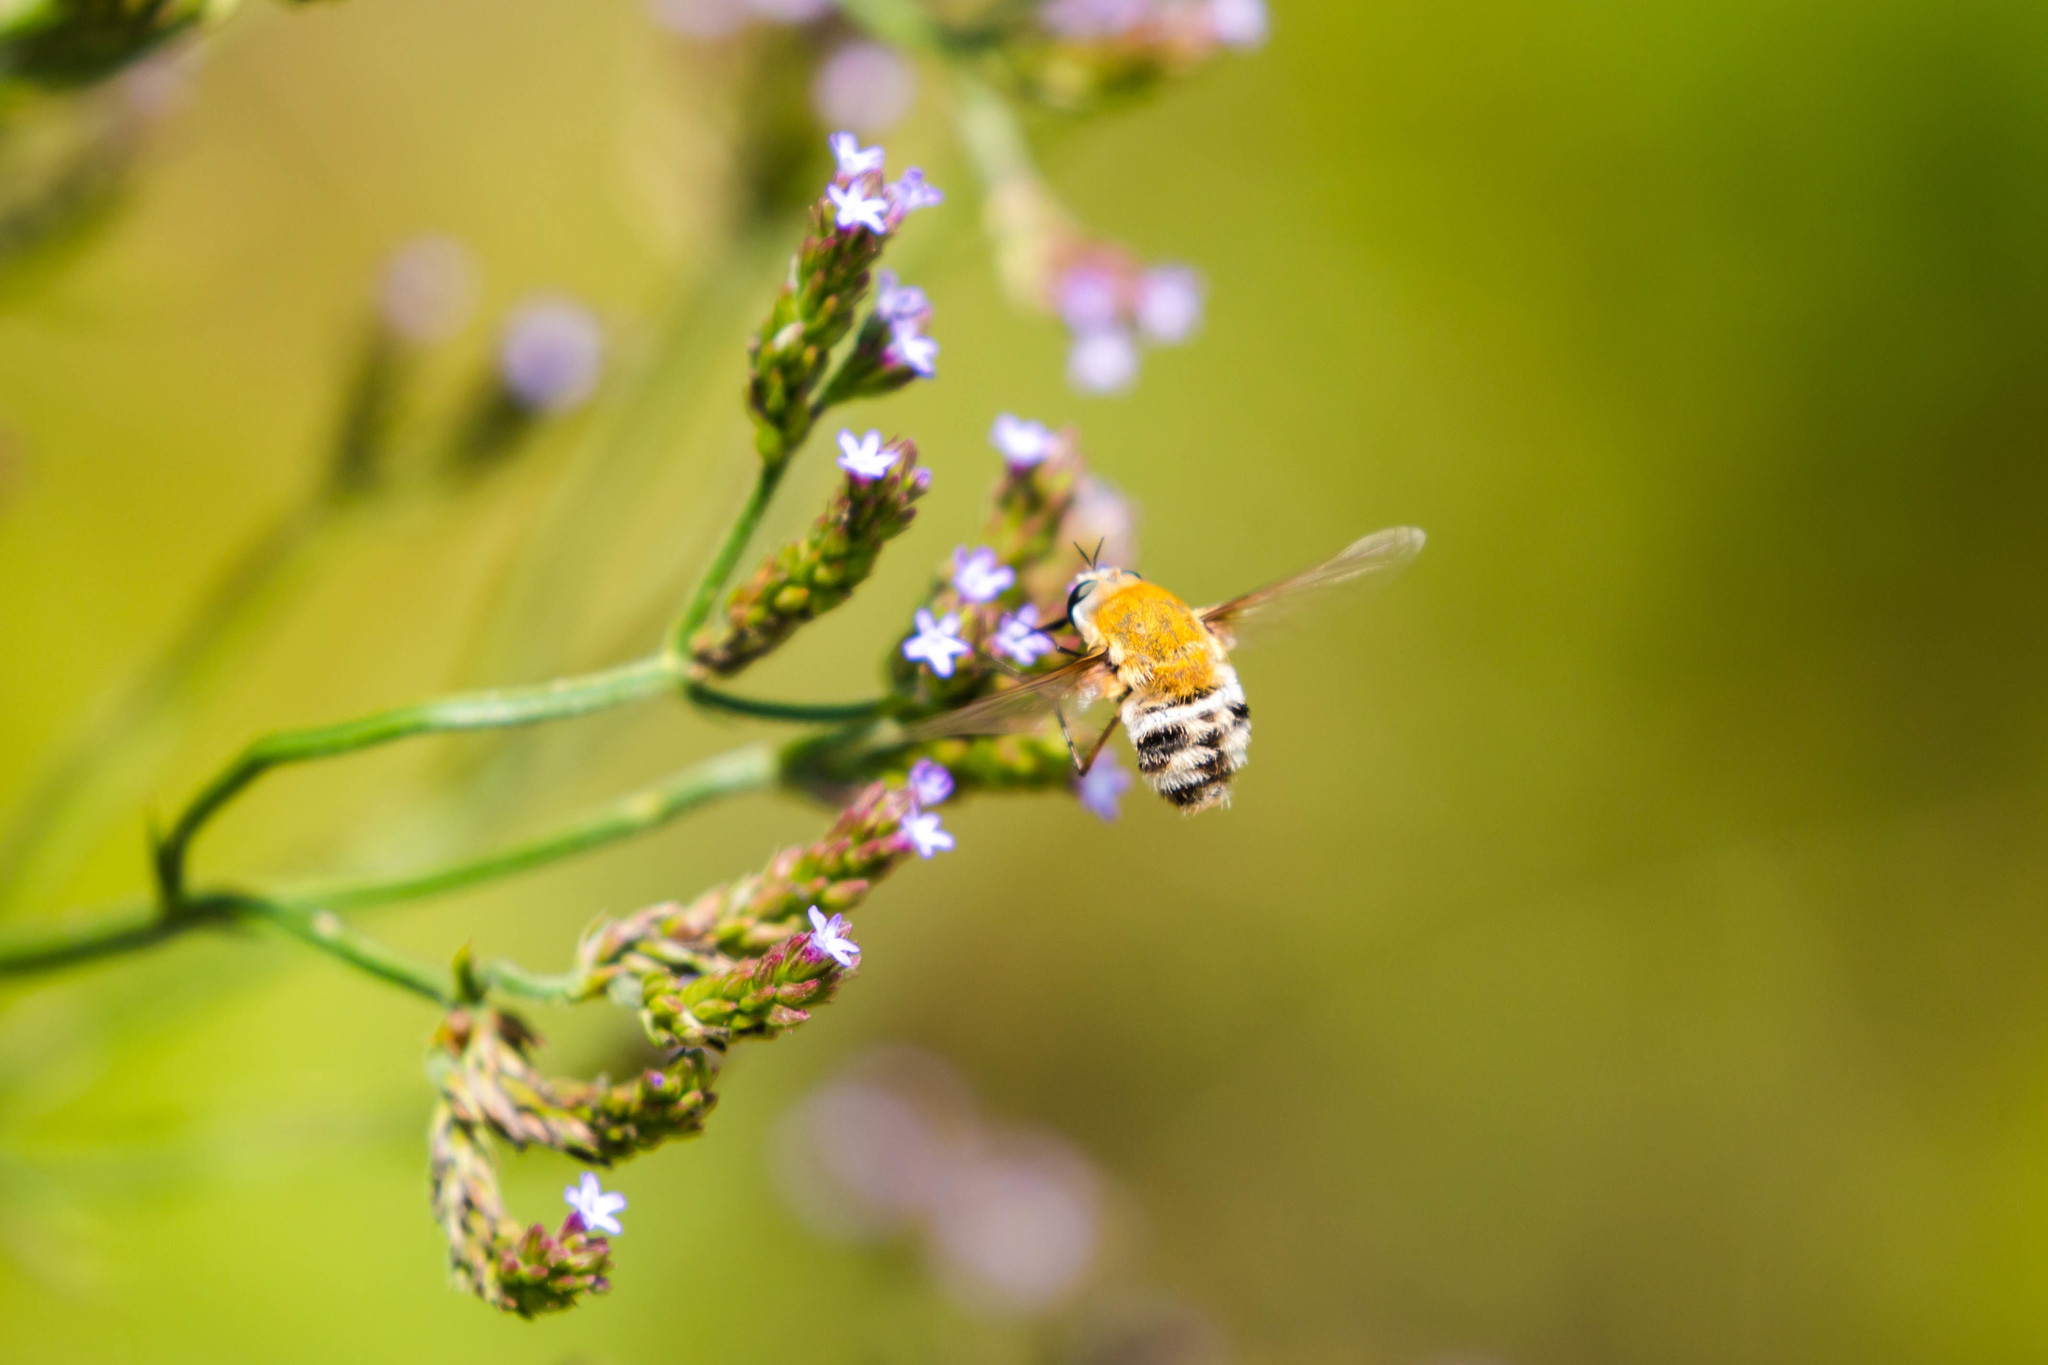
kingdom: Animalia
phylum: Arthropoda
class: Insecta
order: Diptera
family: Bombyliidae
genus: Heterostylum
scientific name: Heterostylum robustum
